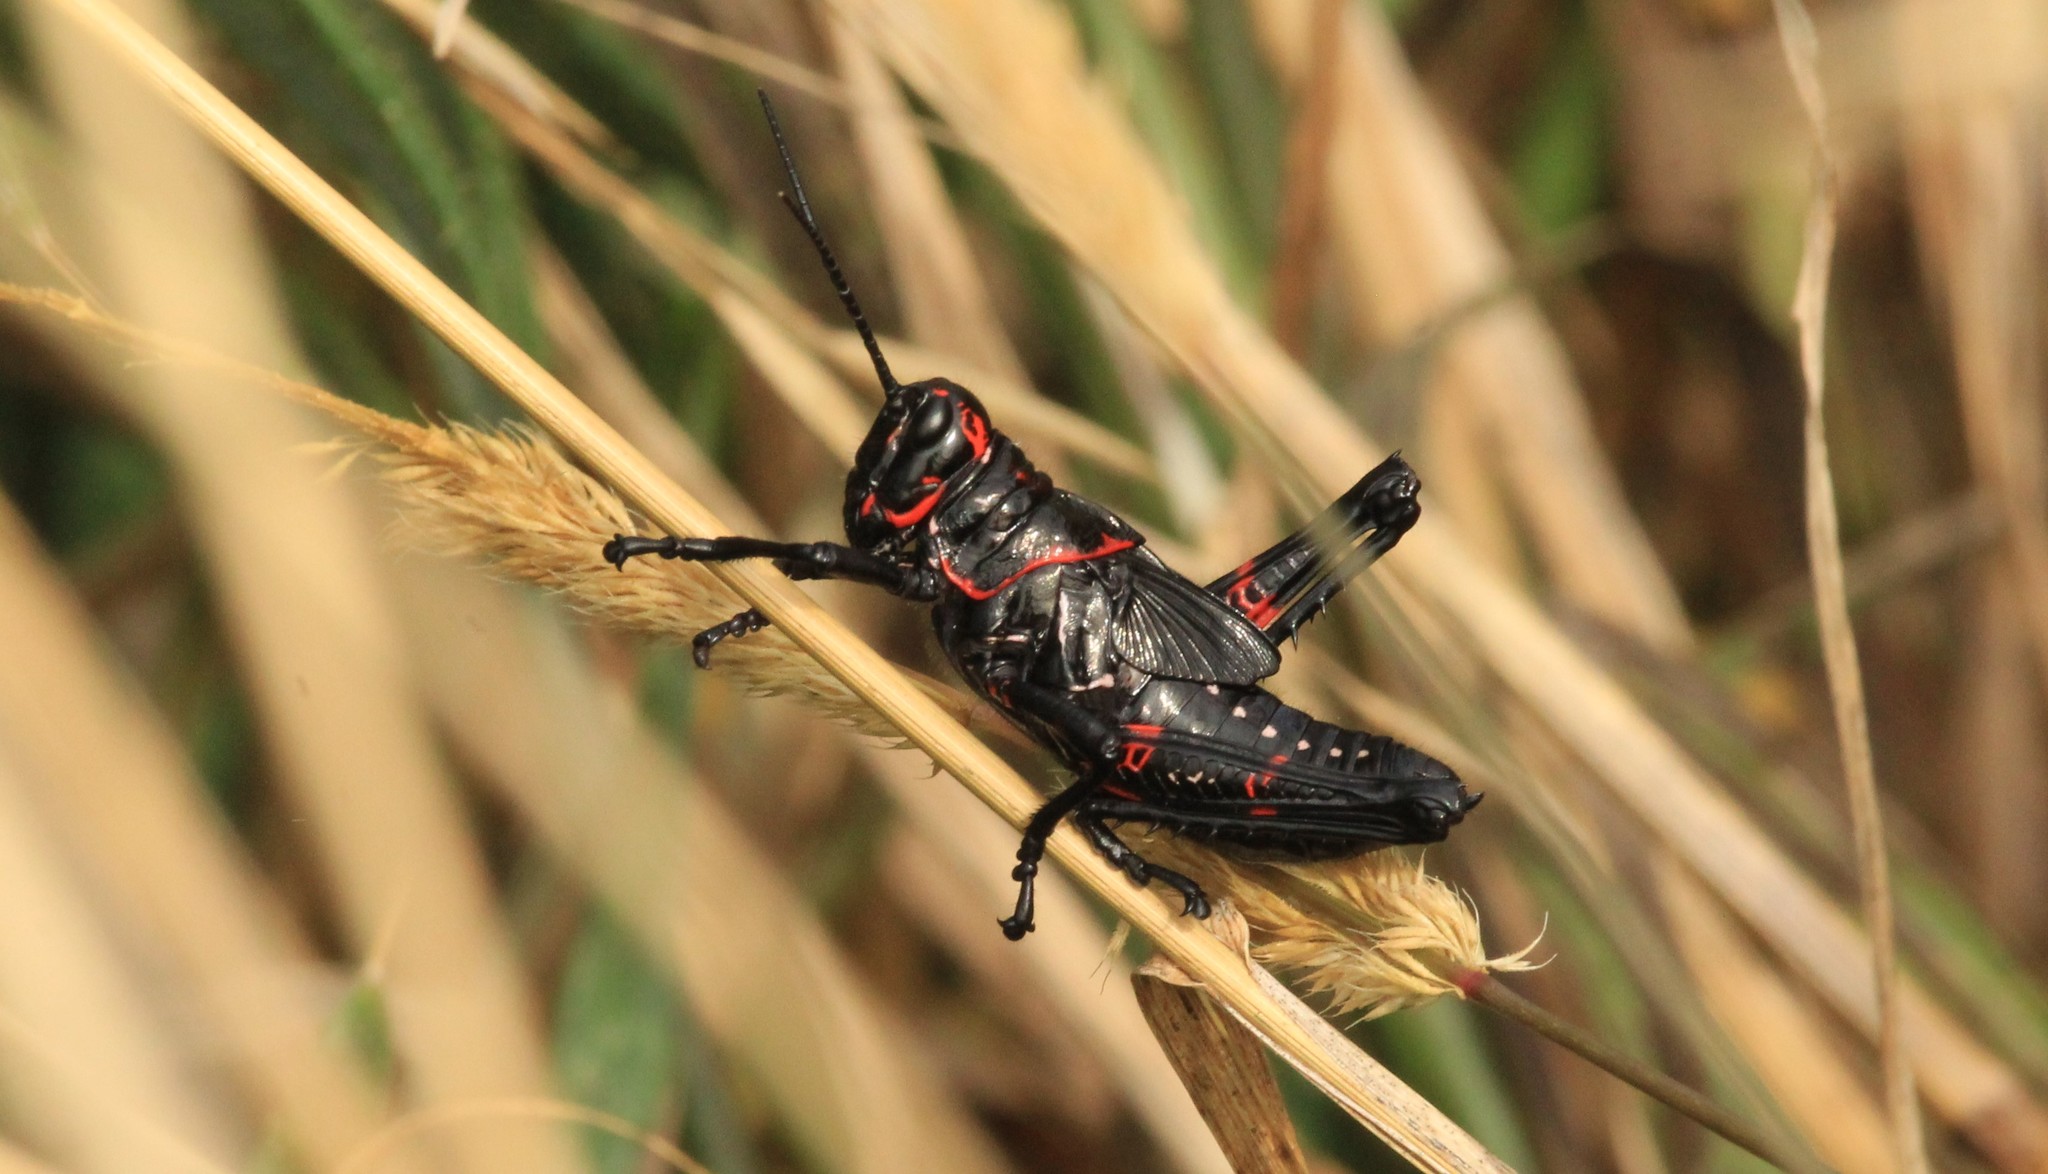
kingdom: Animalia
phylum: Arthropoda
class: Insecta
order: Orthoptera
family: Romaleidae
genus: Chromacris
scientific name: Chromacris speciosa
